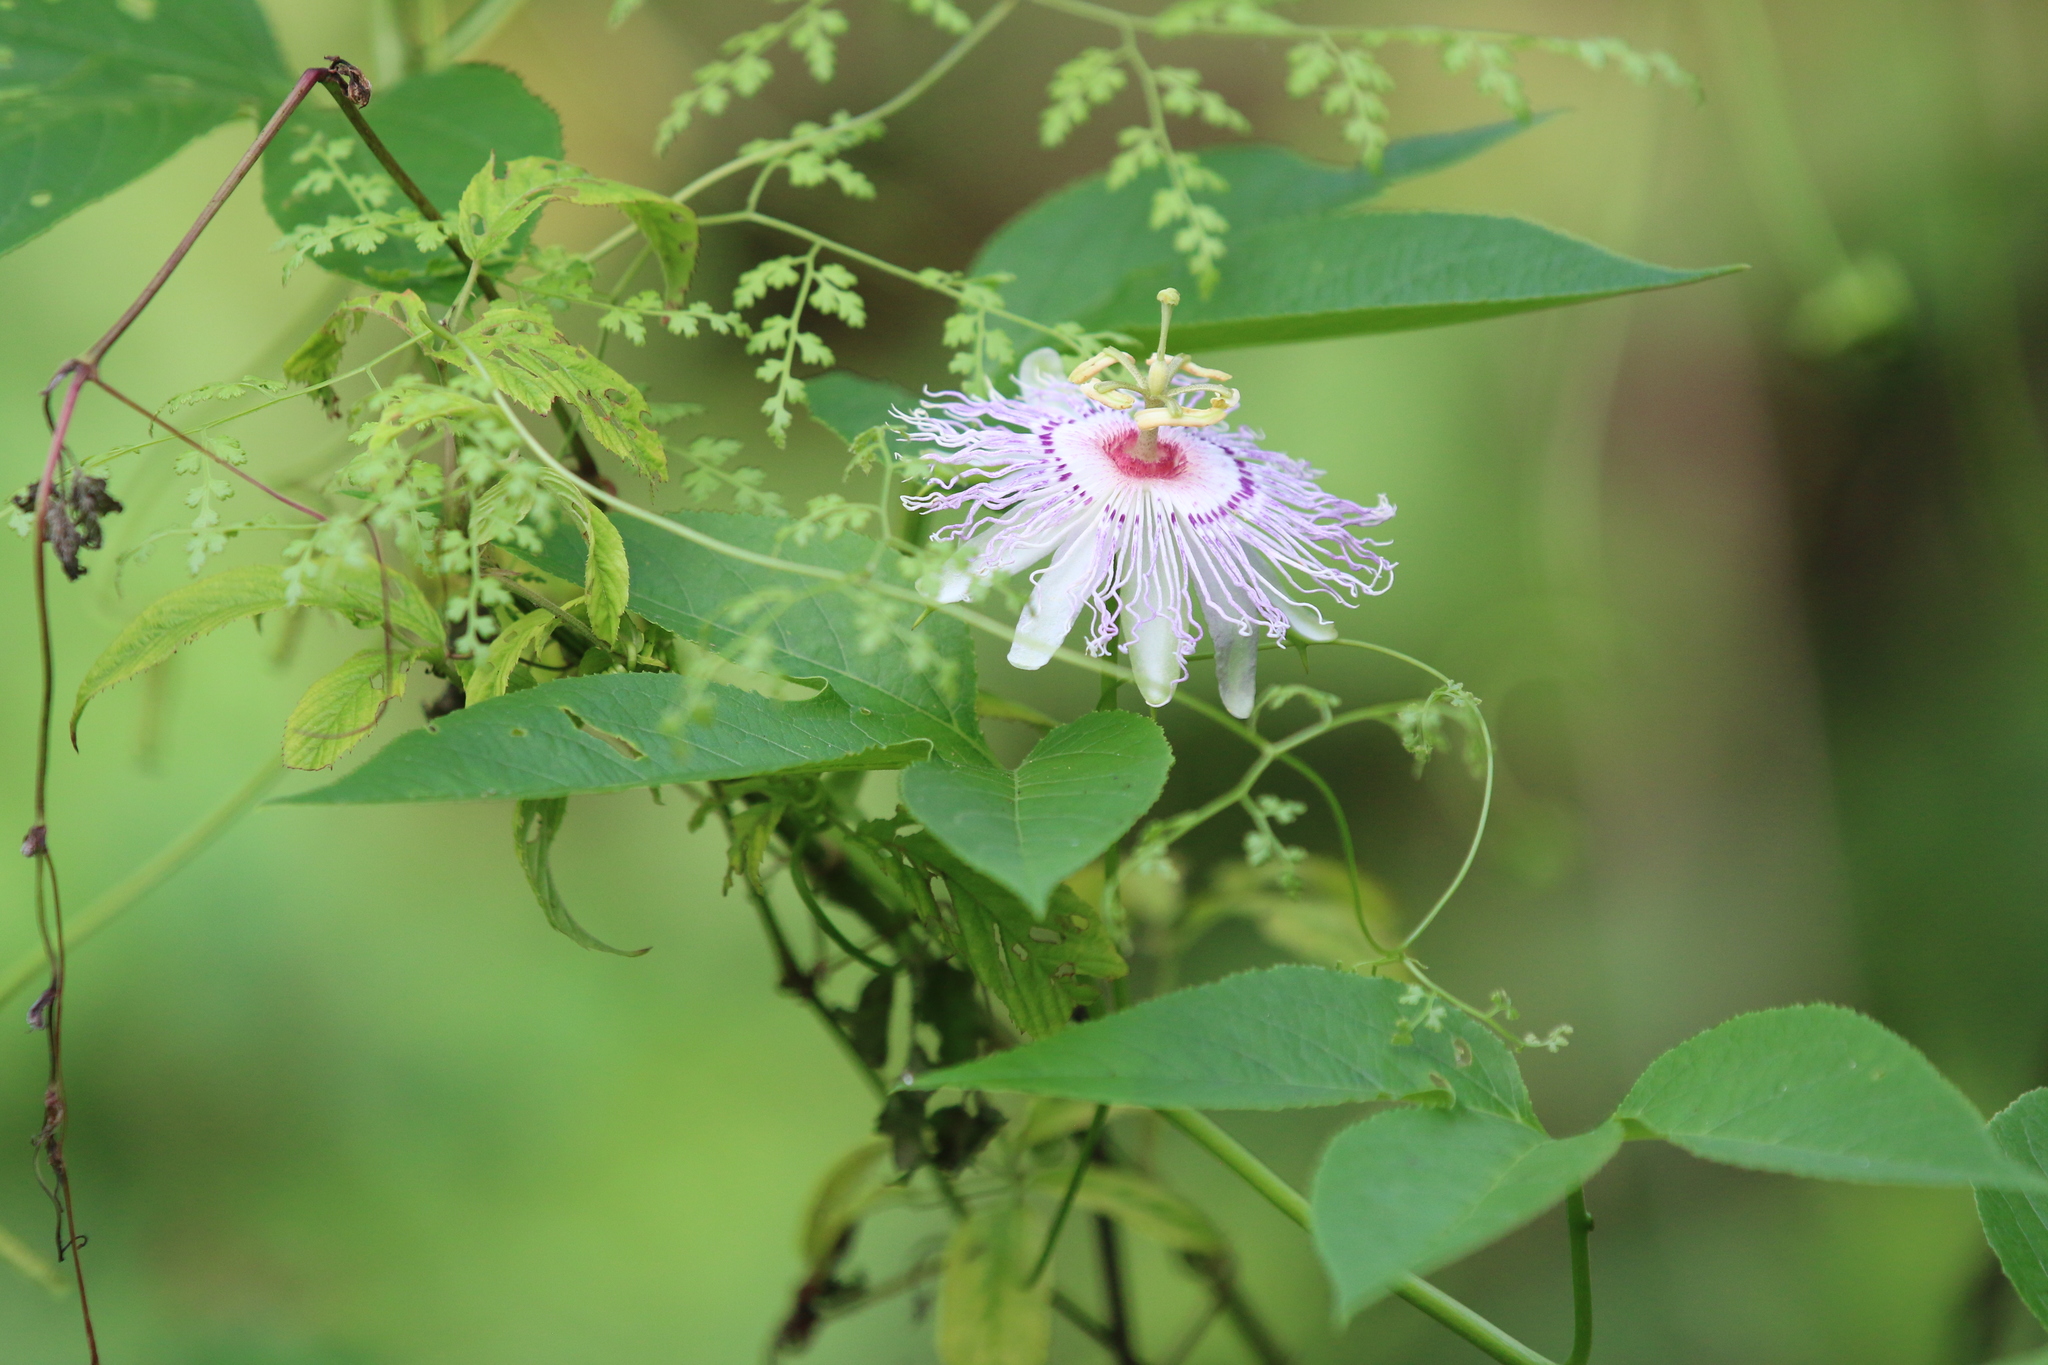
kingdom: Plantae
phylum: Tracheophyta
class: Magnoliopsida
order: Malpighiales
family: Passifloraceae
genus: Passiflora
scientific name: Passiflora incarnata
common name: Apricot-vine
